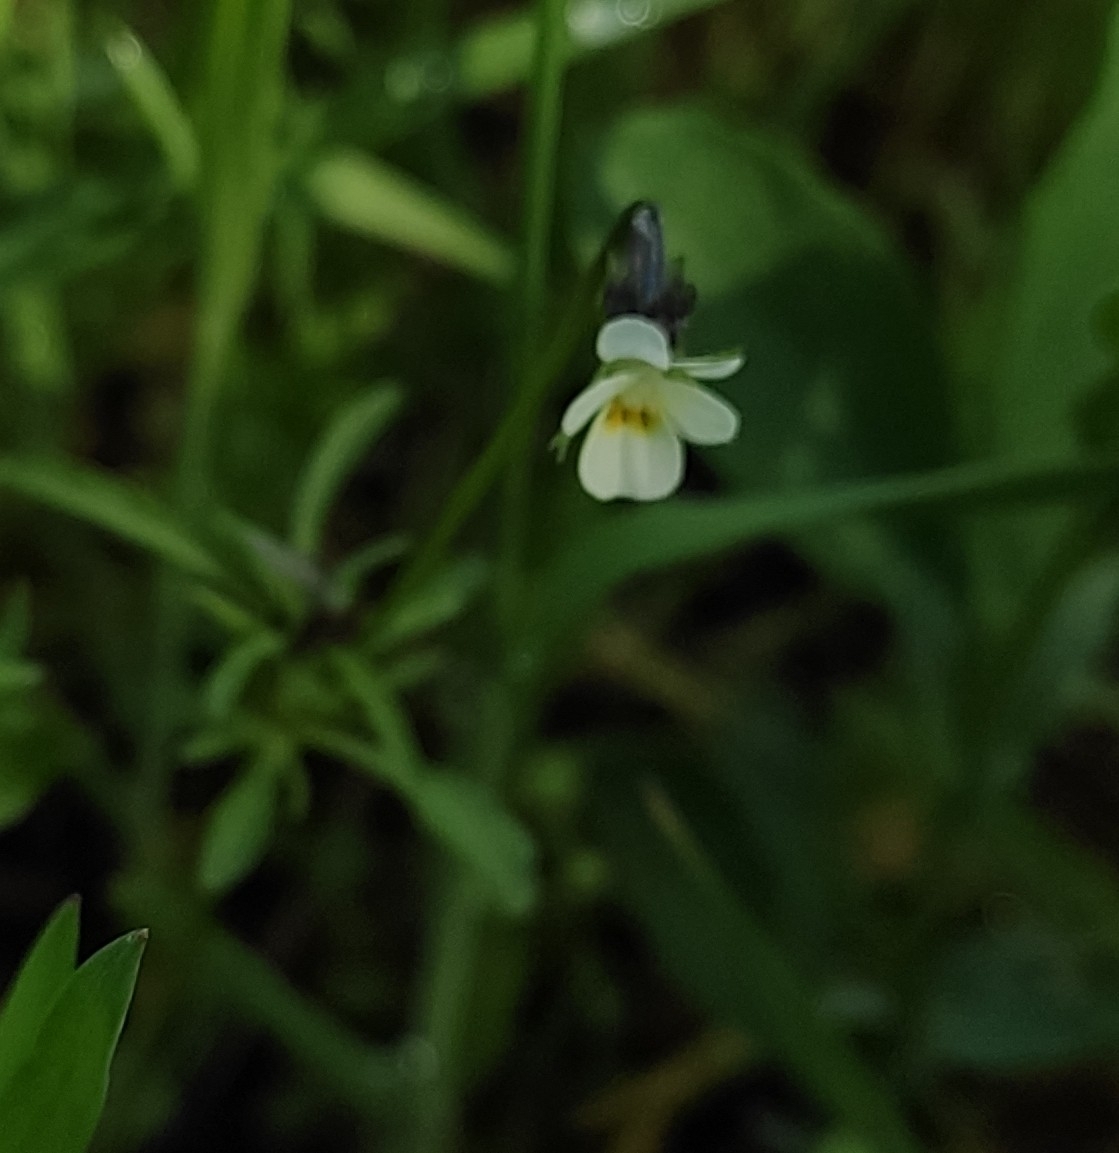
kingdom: Plantae
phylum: Tracheophyta
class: Magnoliopsida
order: Malpighiales
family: Violaceae
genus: Viola
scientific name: Viola arvensis
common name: Field pansy
